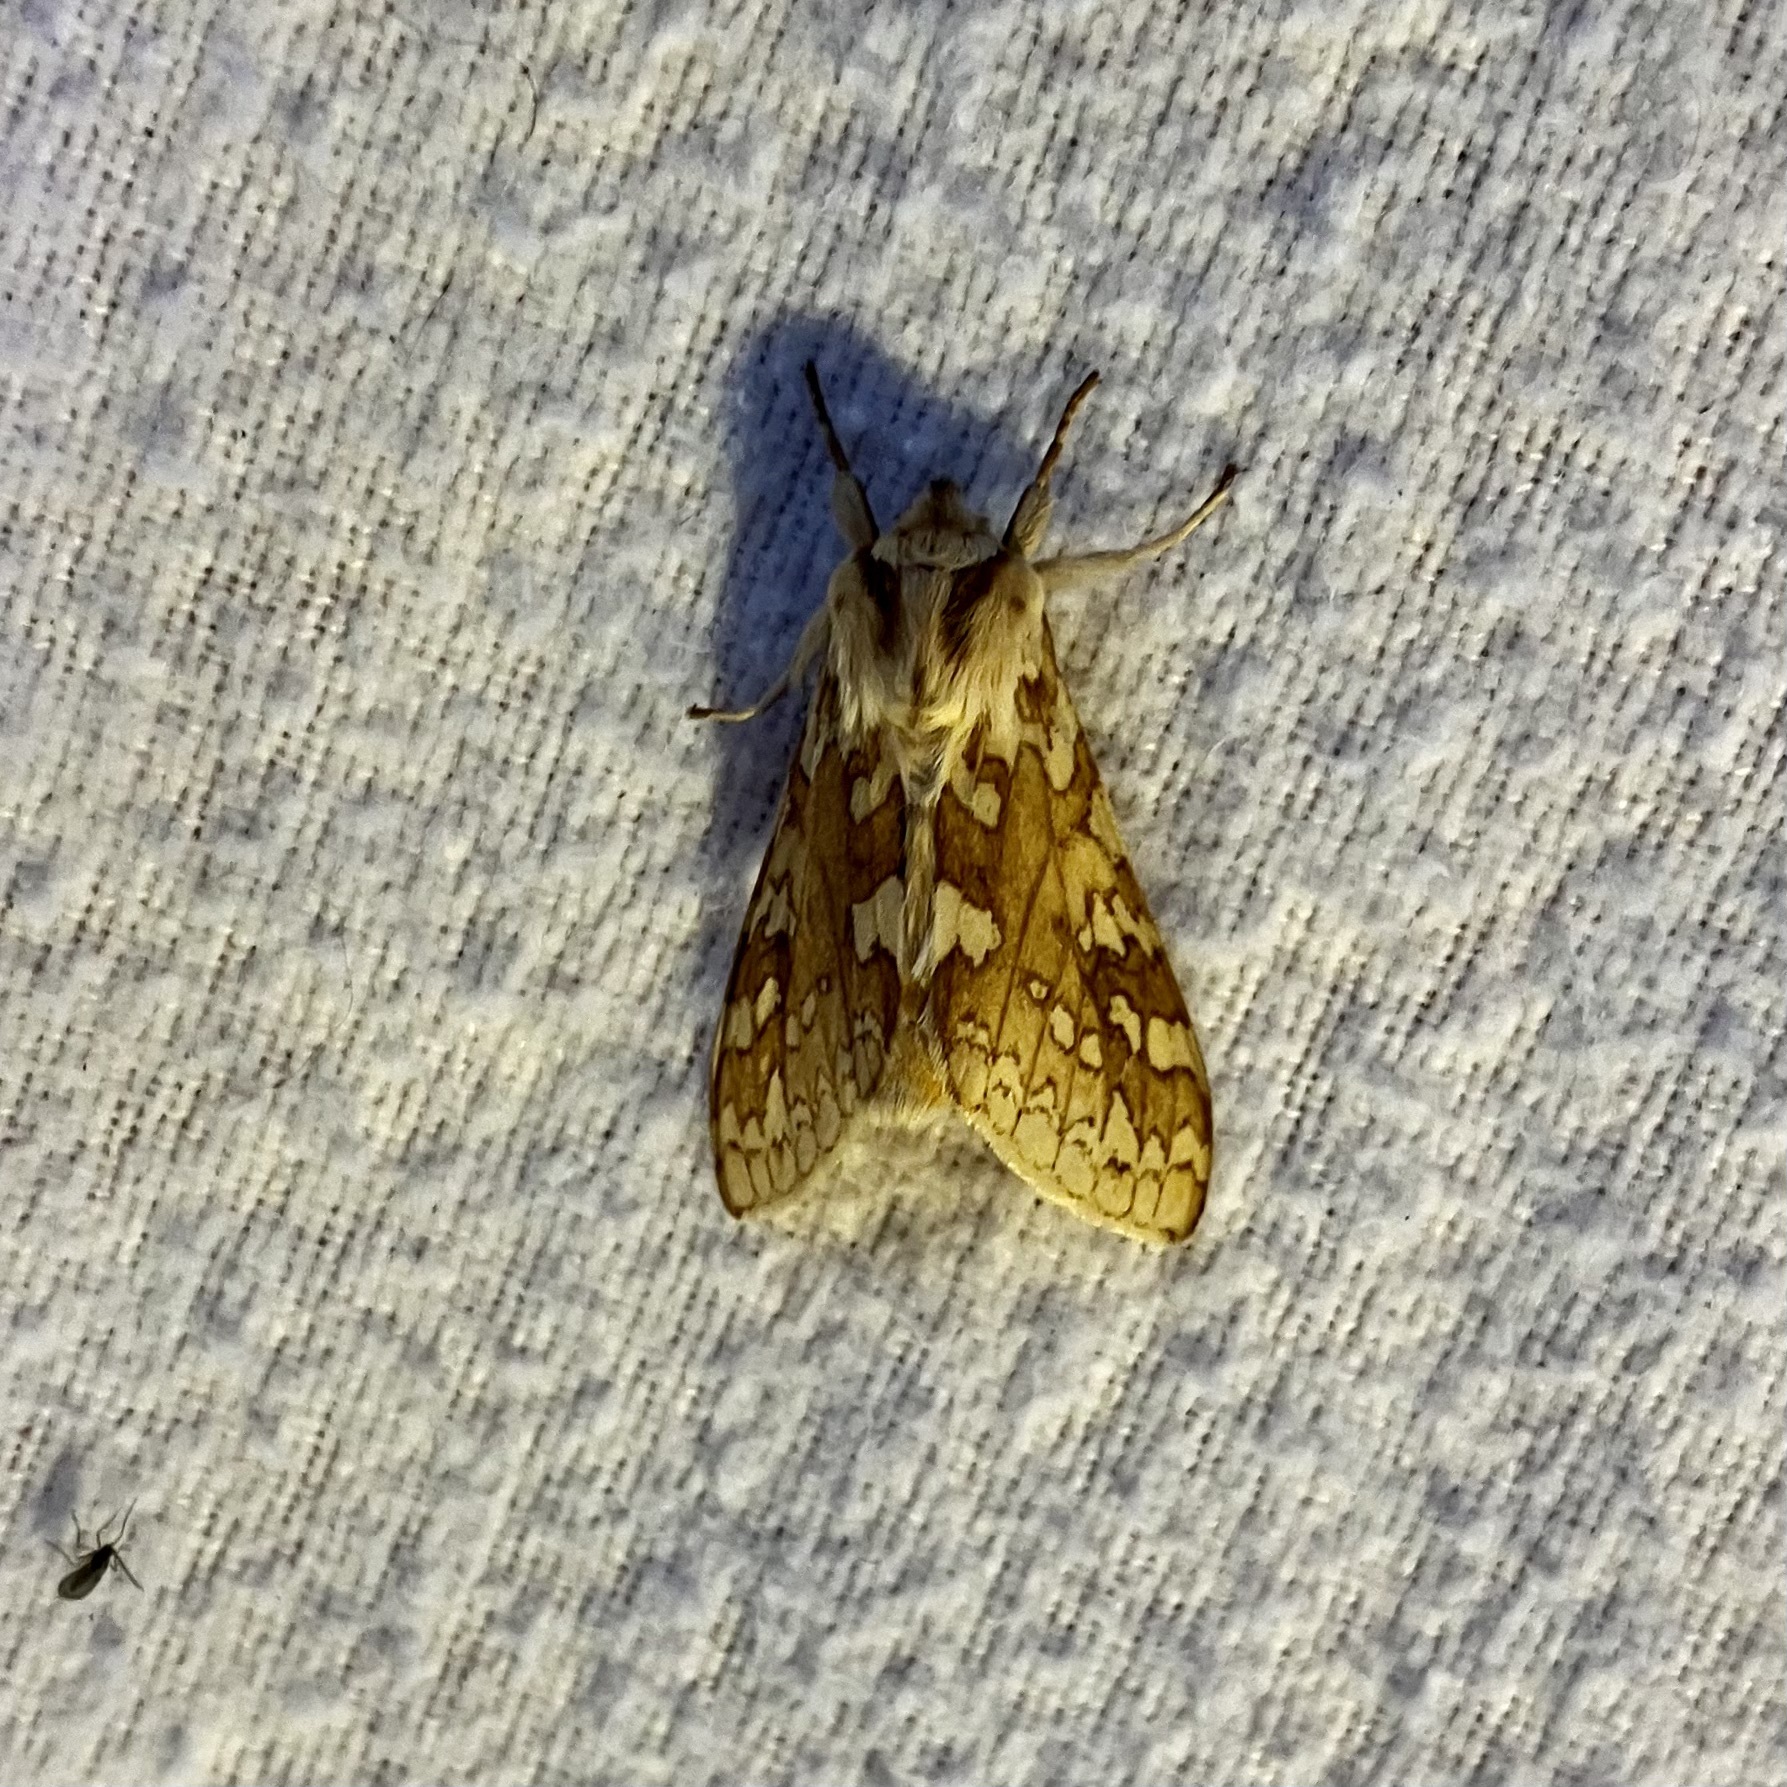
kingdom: Animalia
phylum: Arthropoda
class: Insecta
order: Lepidoptera
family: Erebidae
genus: Lophocampa
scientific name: Lophocampa maculata
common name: Spotted tussock moth
